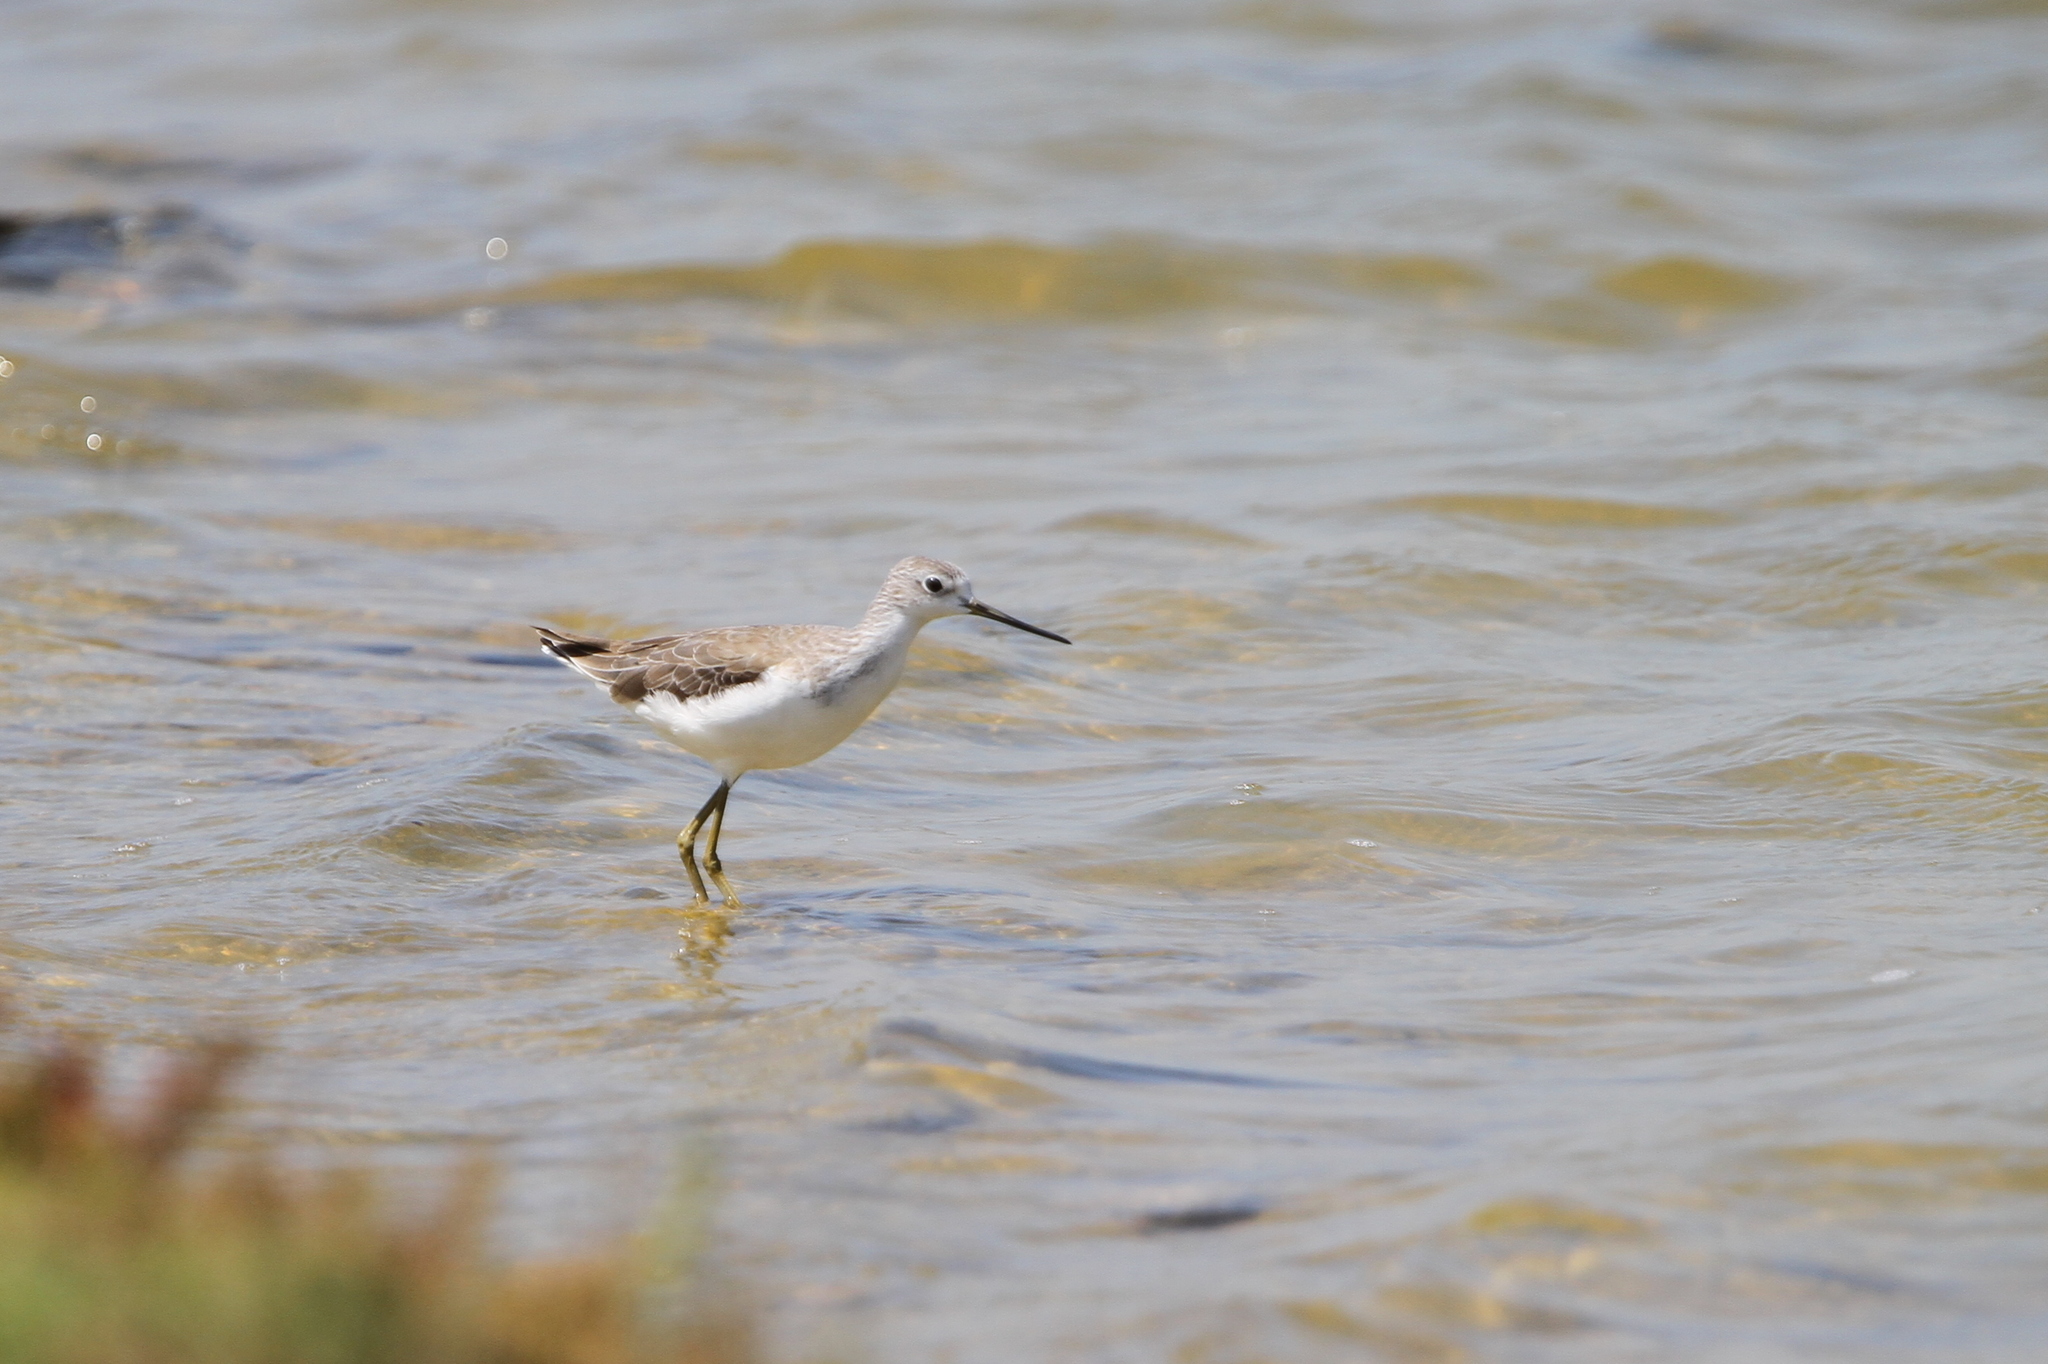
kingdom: Animalia
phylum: Chordata
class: Aves
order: Charadriiformes
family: Scolopacidae
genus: Tringa
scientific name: Tringa stagnatilis
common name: Marsh sandpiper
